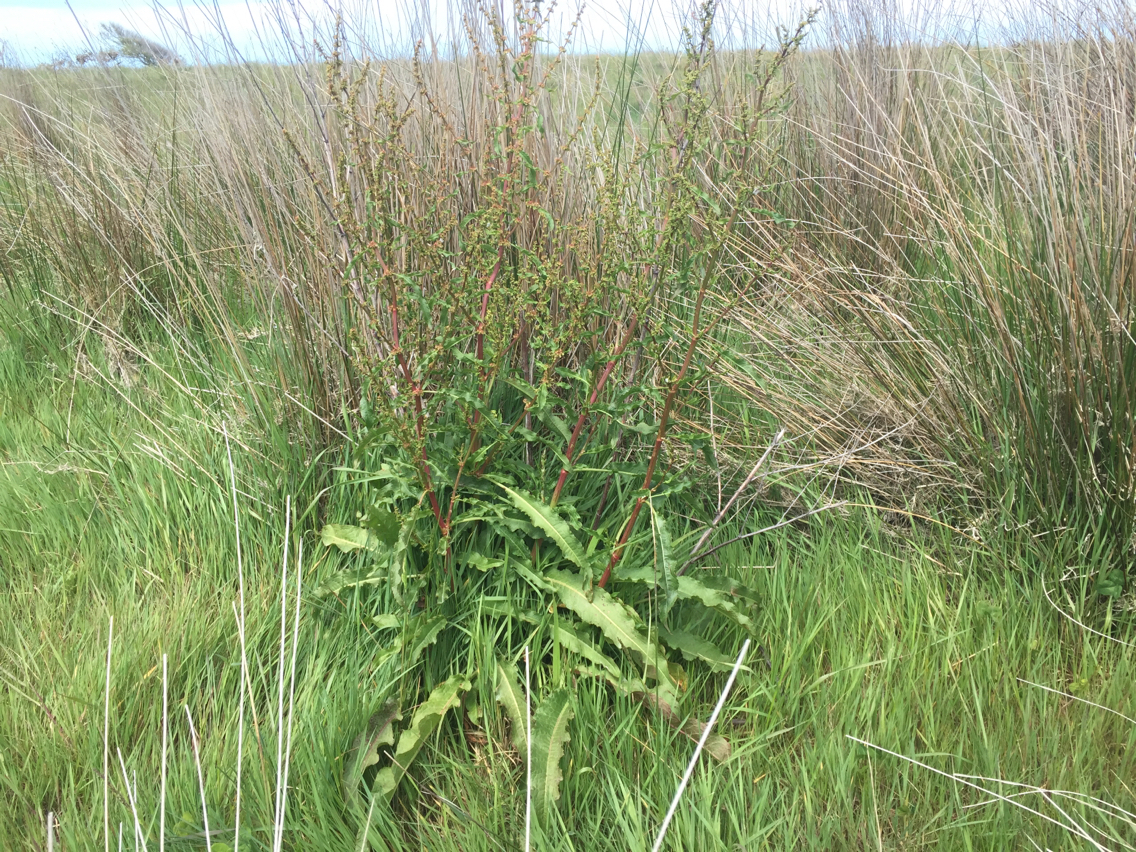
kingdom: Plantae
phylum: Tracheophyta
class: Magnoliopsida
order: Caryophyllales
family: Polygonaceae
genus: Rumex
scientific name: Rumex crispus
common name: Curled dock
